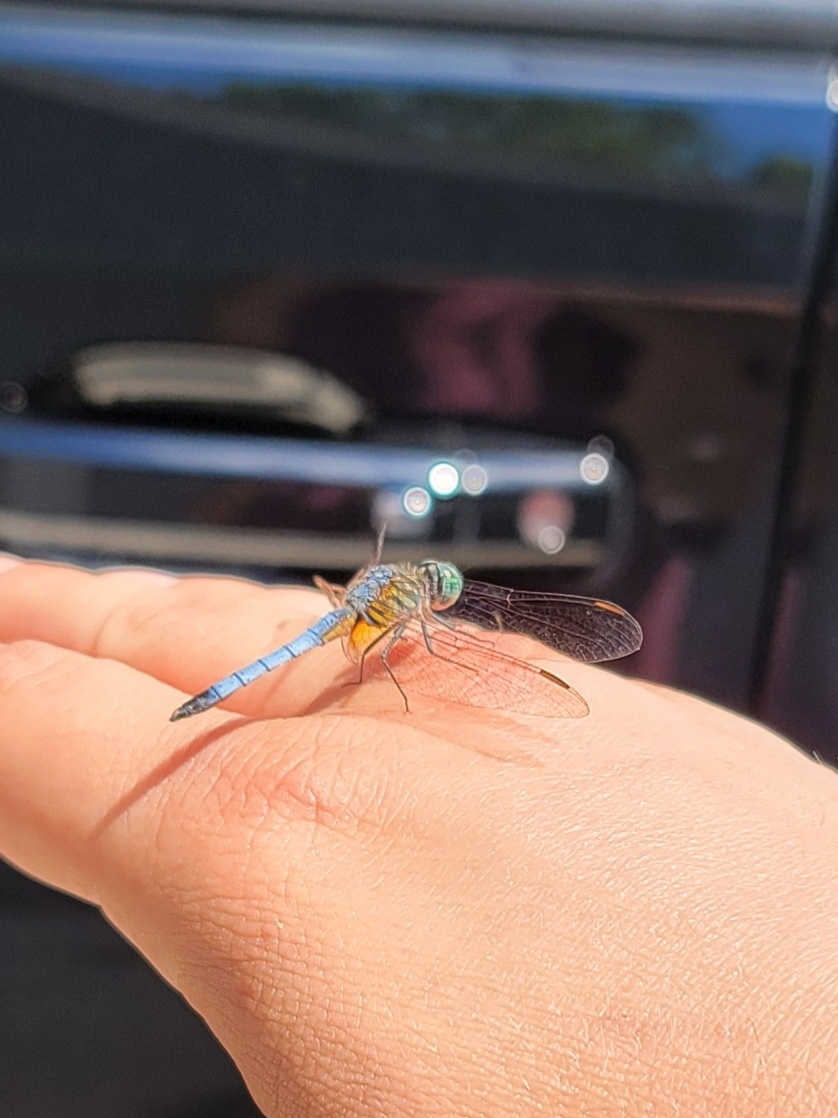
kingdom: Animalia
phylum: Arthropoda
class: Insecta
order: Odonata
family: Libellulidae
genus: Pachydiplax
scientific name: Pachydiplax longipennis
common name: Blue dasher
